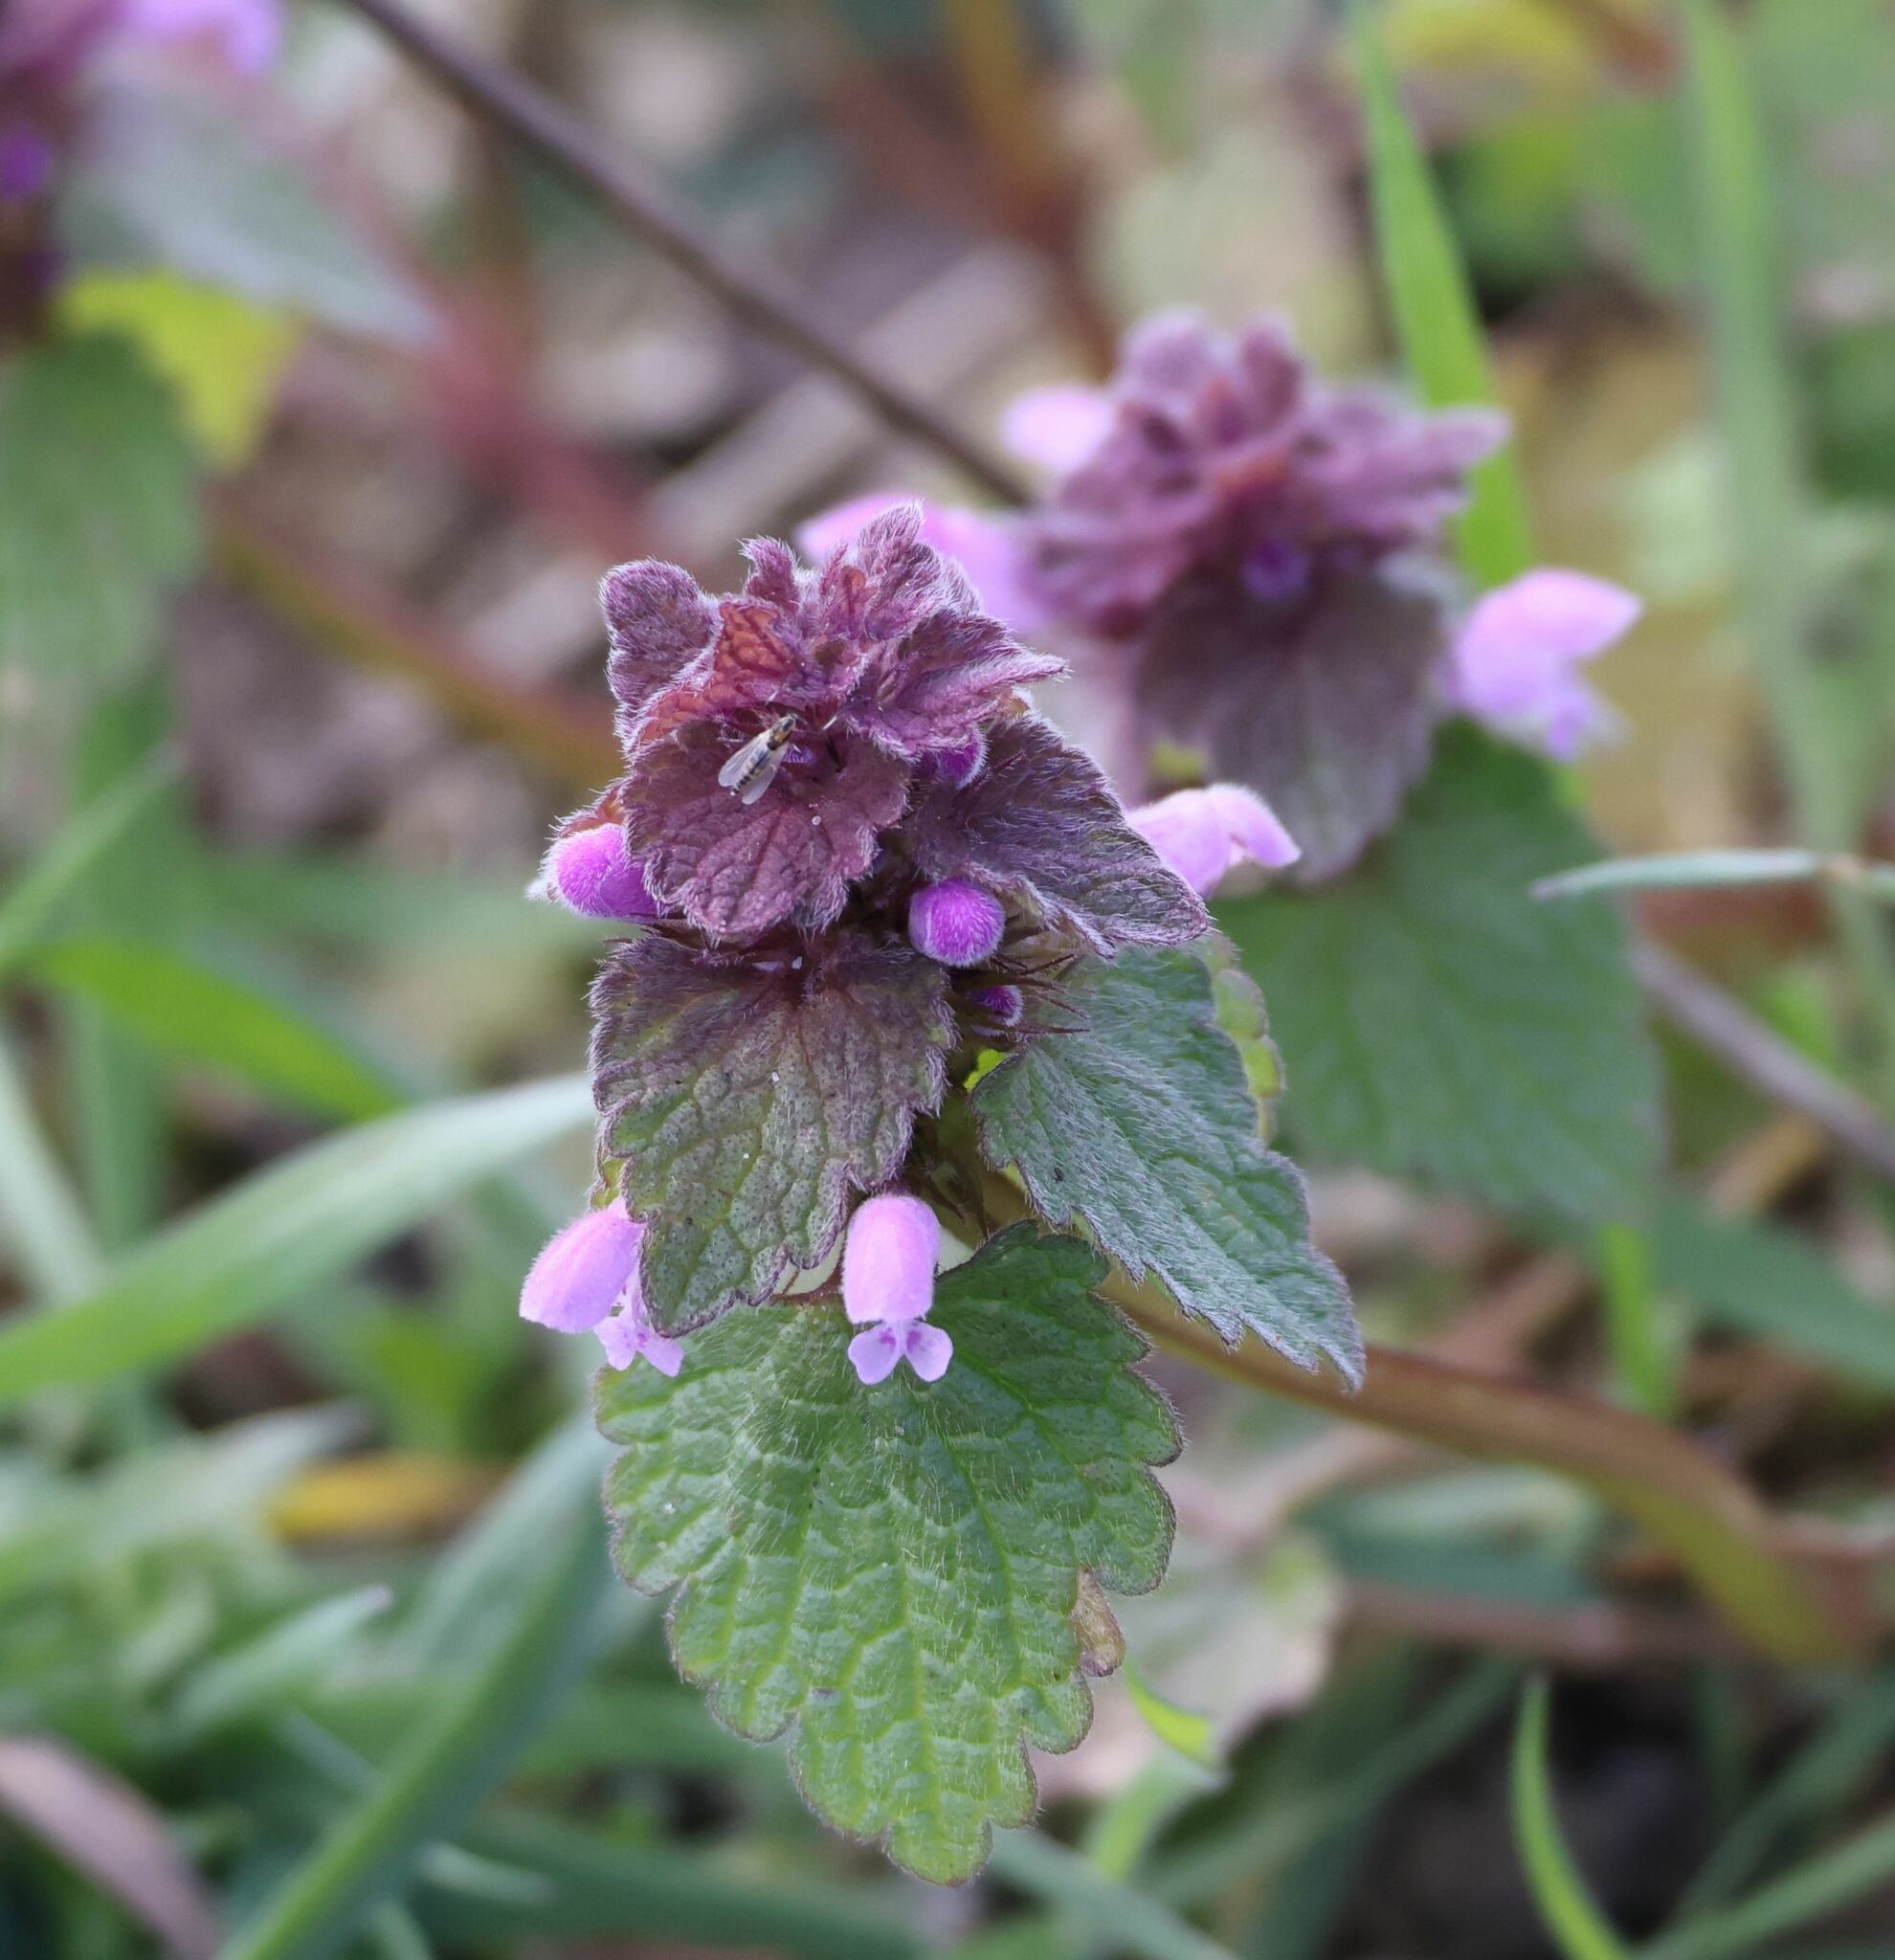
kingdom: Plantae
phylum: Tracheophyta
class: Magnoliopsida
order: Lamiales
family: Lamiaceae
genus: Lamium
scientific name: Lamium purpureum
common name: Red dead-nettle
